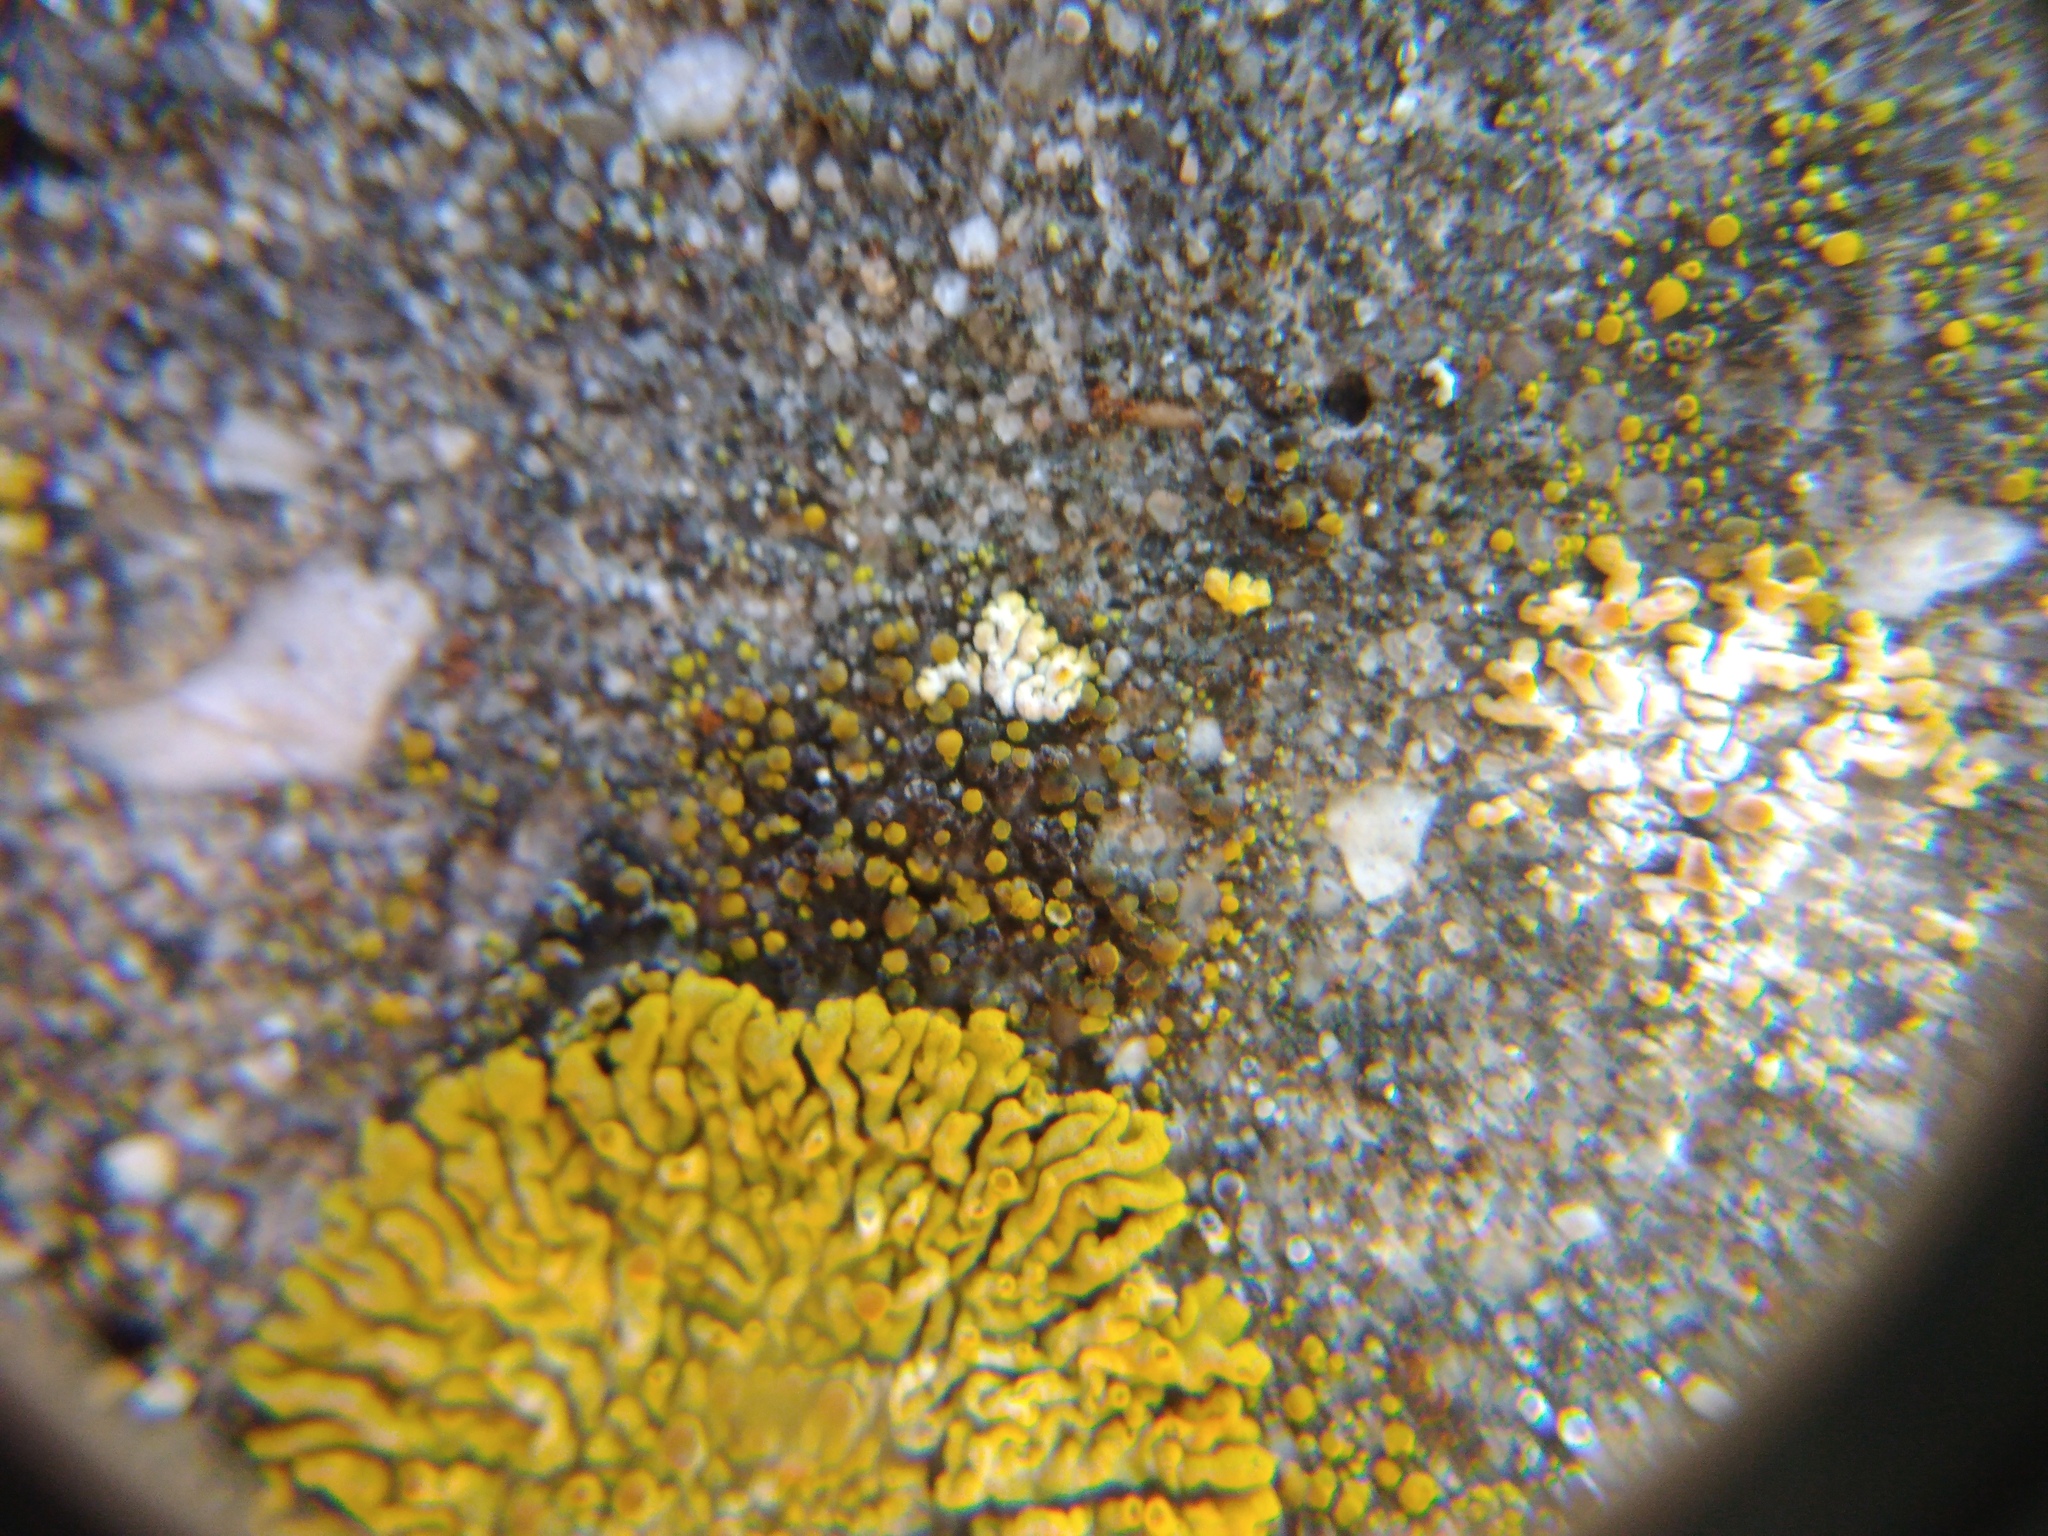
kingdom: Fungi
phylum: Ascomycota
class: Candelariomycetes
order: Candelariales
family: Candelariaceae
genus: Candelariella
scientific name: Candelariella aurella
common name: Hidden goldspeck lichen
